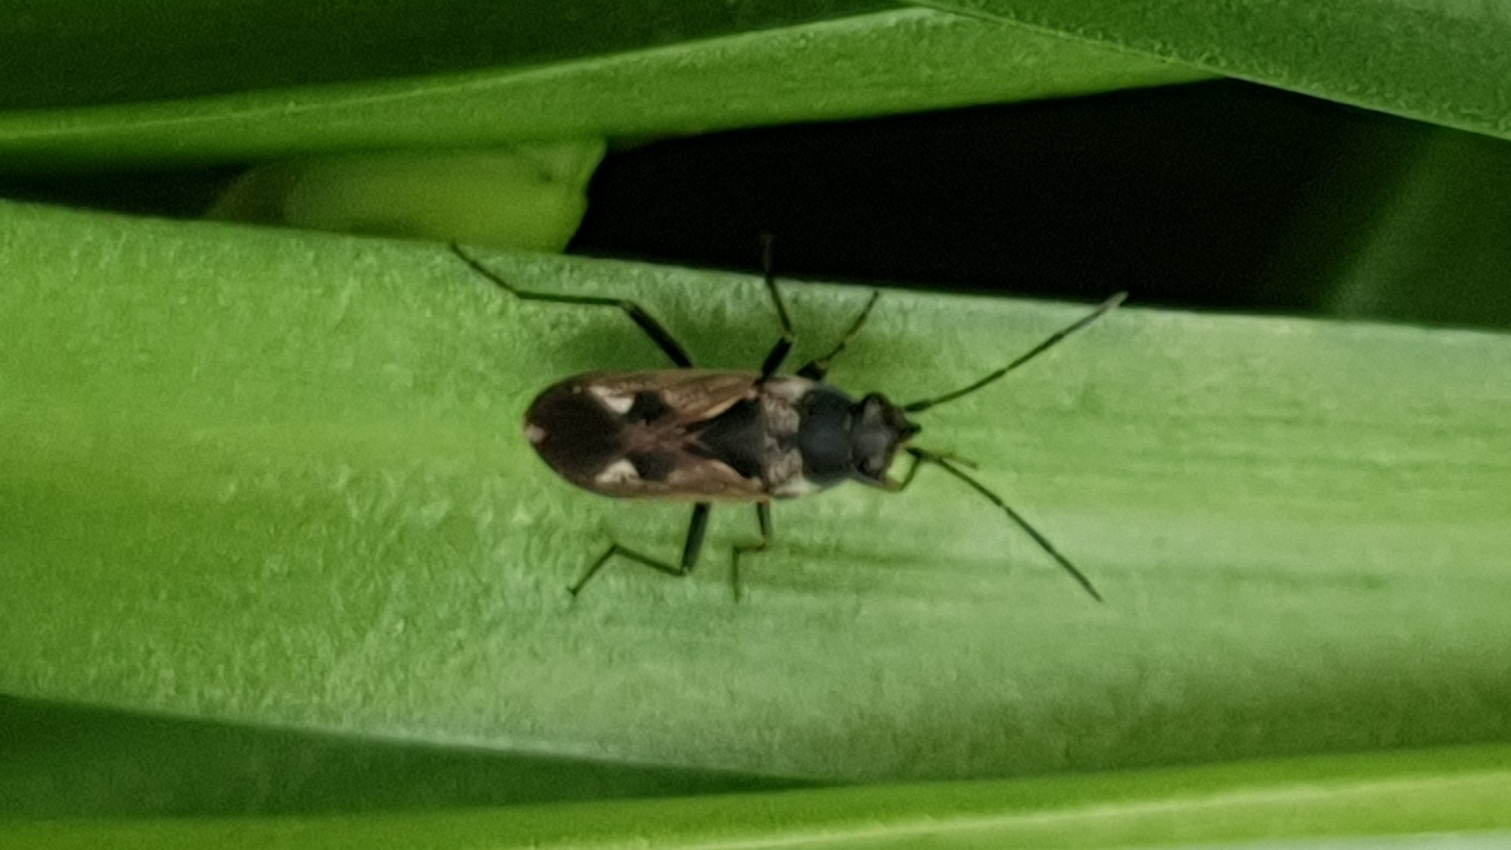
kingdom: Animalia
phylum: Arthropoda
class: Insecta
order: Hemiptera
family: Rhyparochromidae
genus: Rhyparochromus
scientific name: Rhyparochromus vulgaris
